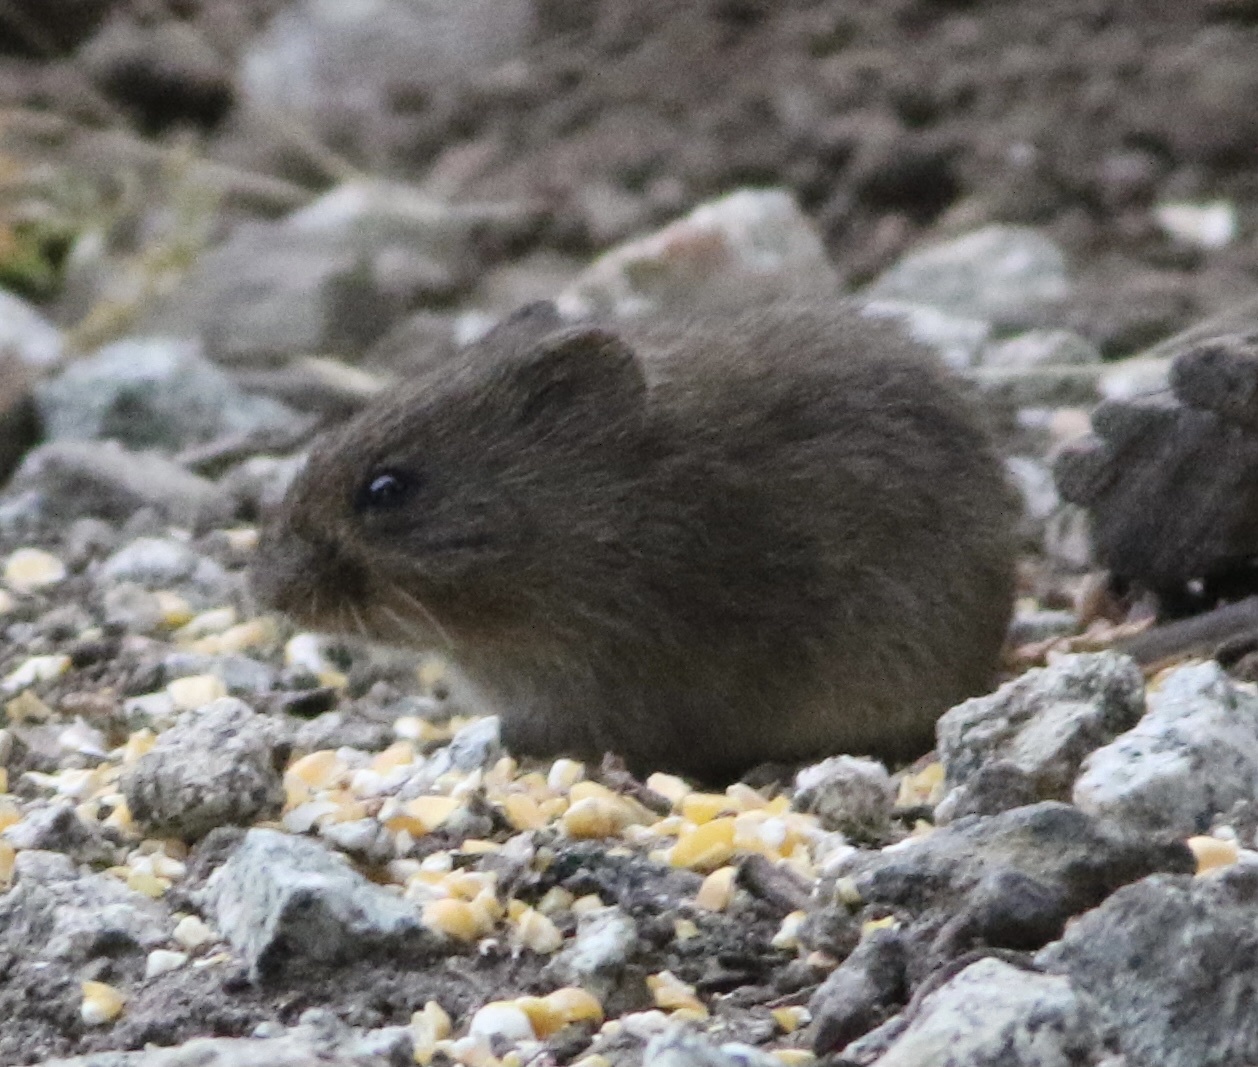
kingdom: Animalia
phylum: Chordata
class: Mammalia
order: Rodentia
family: Cricetidae
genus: Microtus
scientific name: Microtus californicus
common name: California vole
